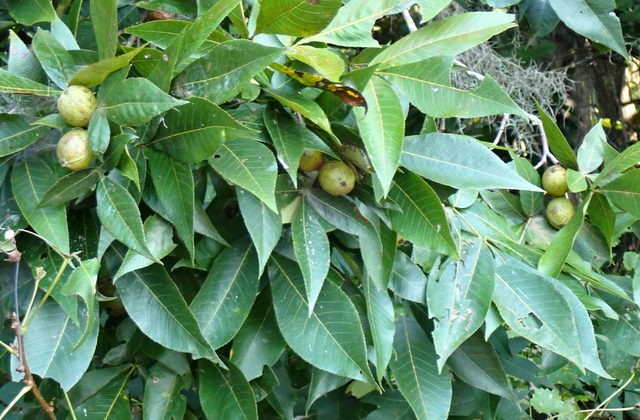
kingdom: Plantae
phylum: Tracheophyta
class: Magnoliopsida
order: Fagales
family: Juglandaceae
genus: Carya
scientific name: Carya glabra
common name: Pignut hickory
